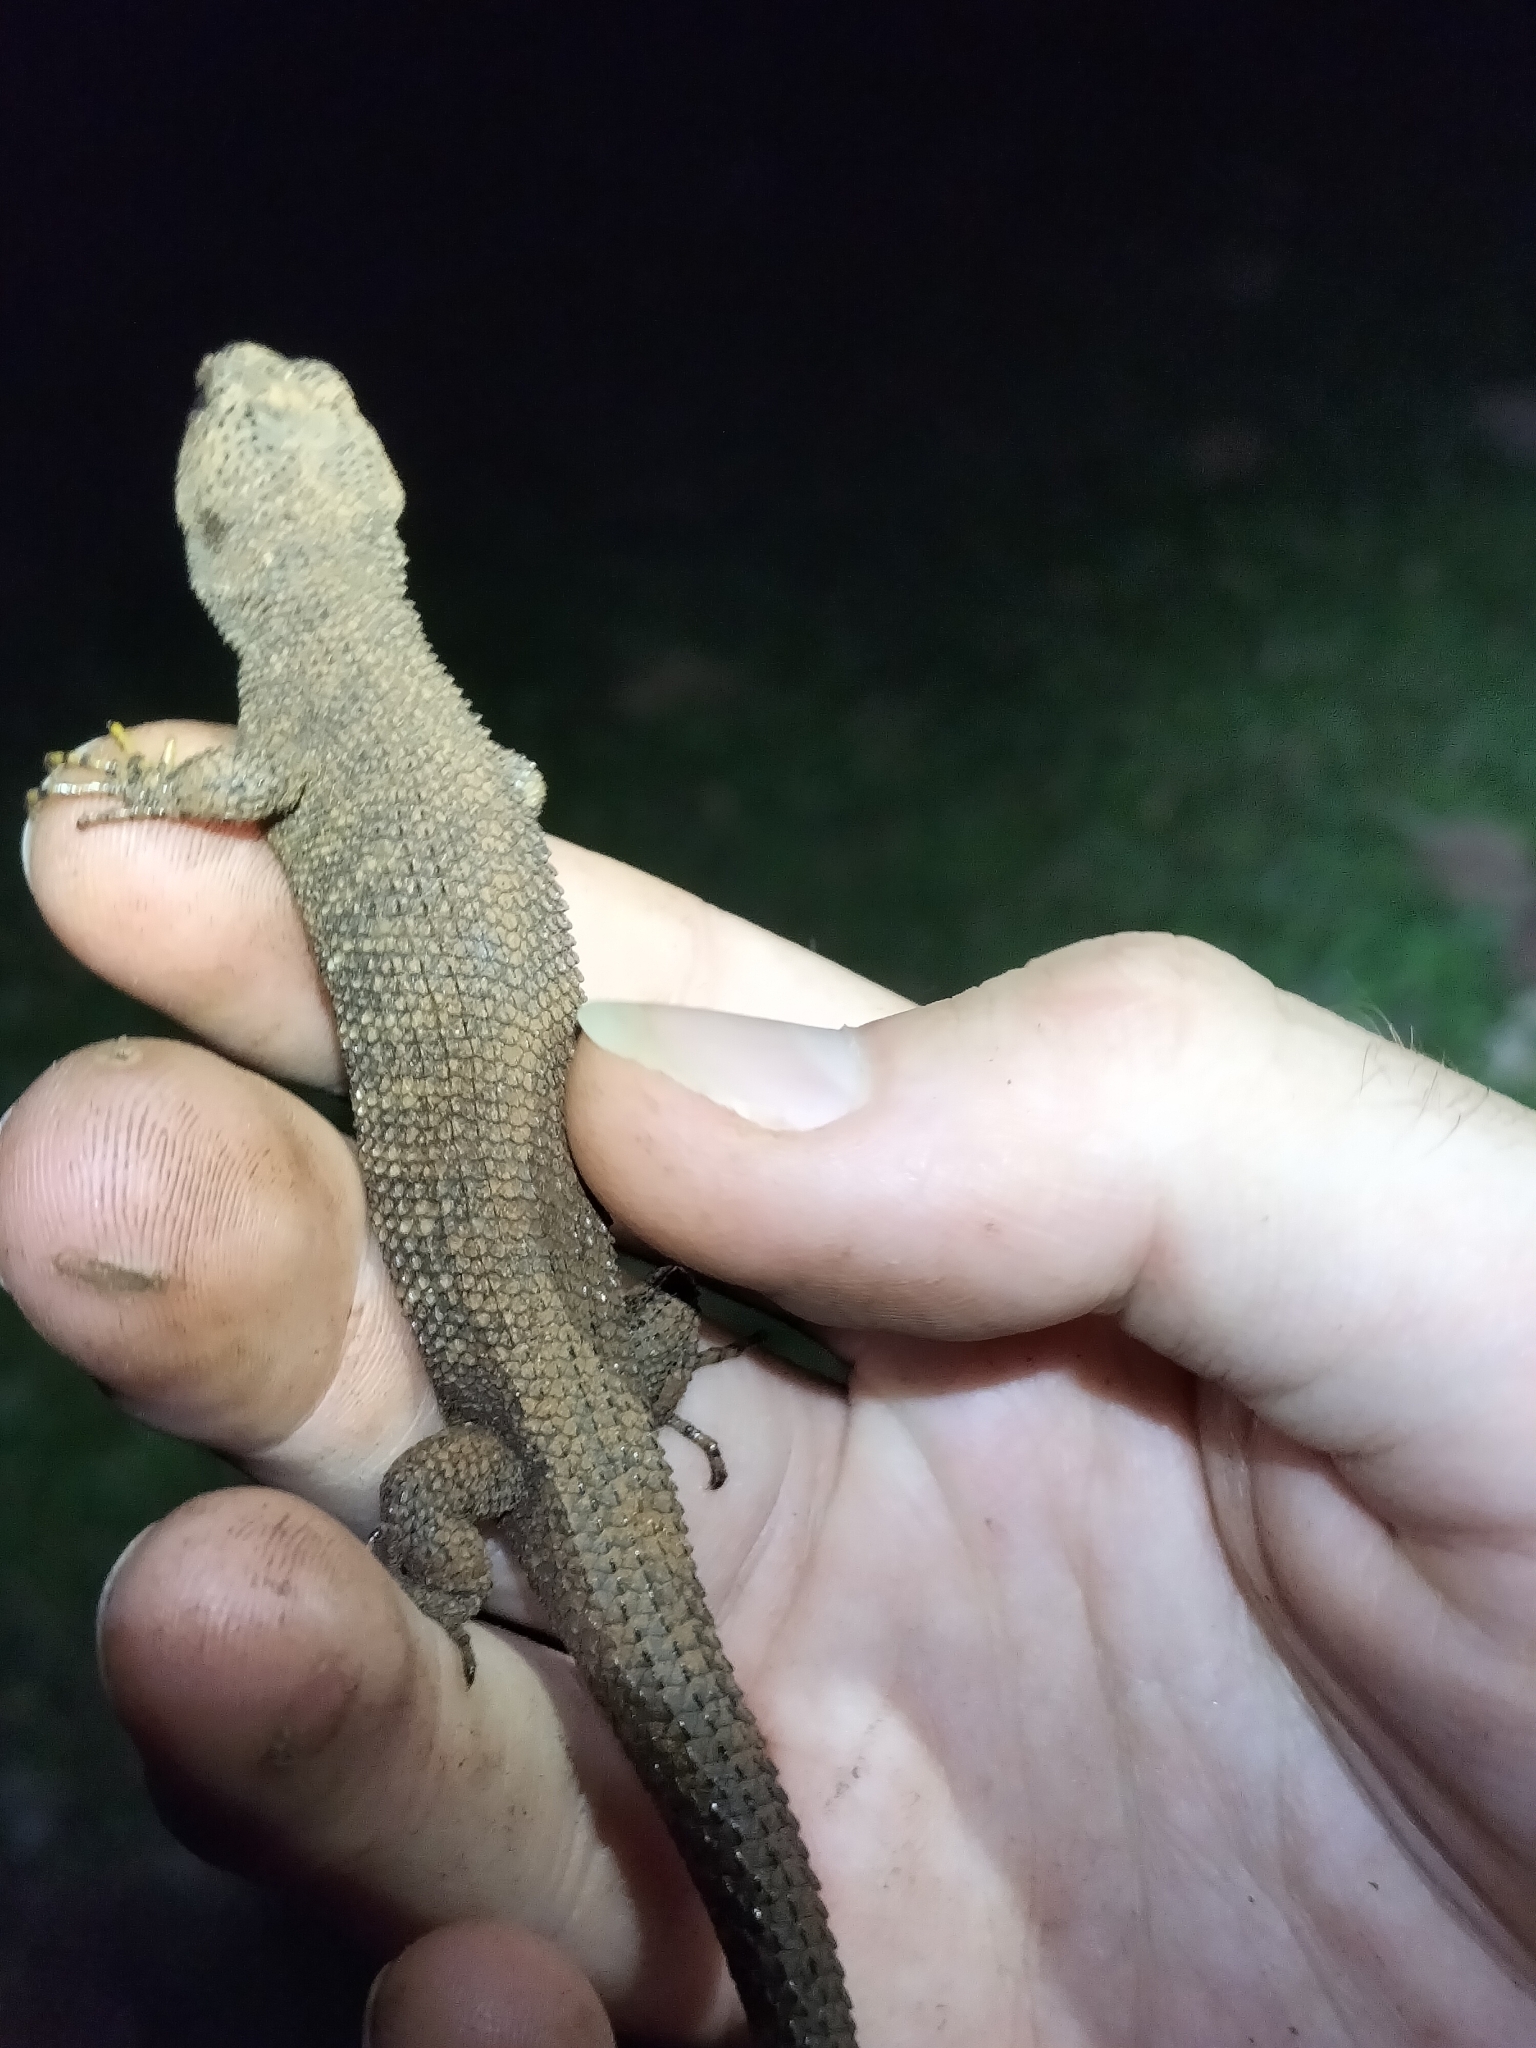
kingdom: Animalia
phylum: Chordata
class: Squamata
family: Scincidae
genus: Gnypetoscincus
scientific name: Gnypetoscincus queenslandiae
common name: Prickly forest skink
